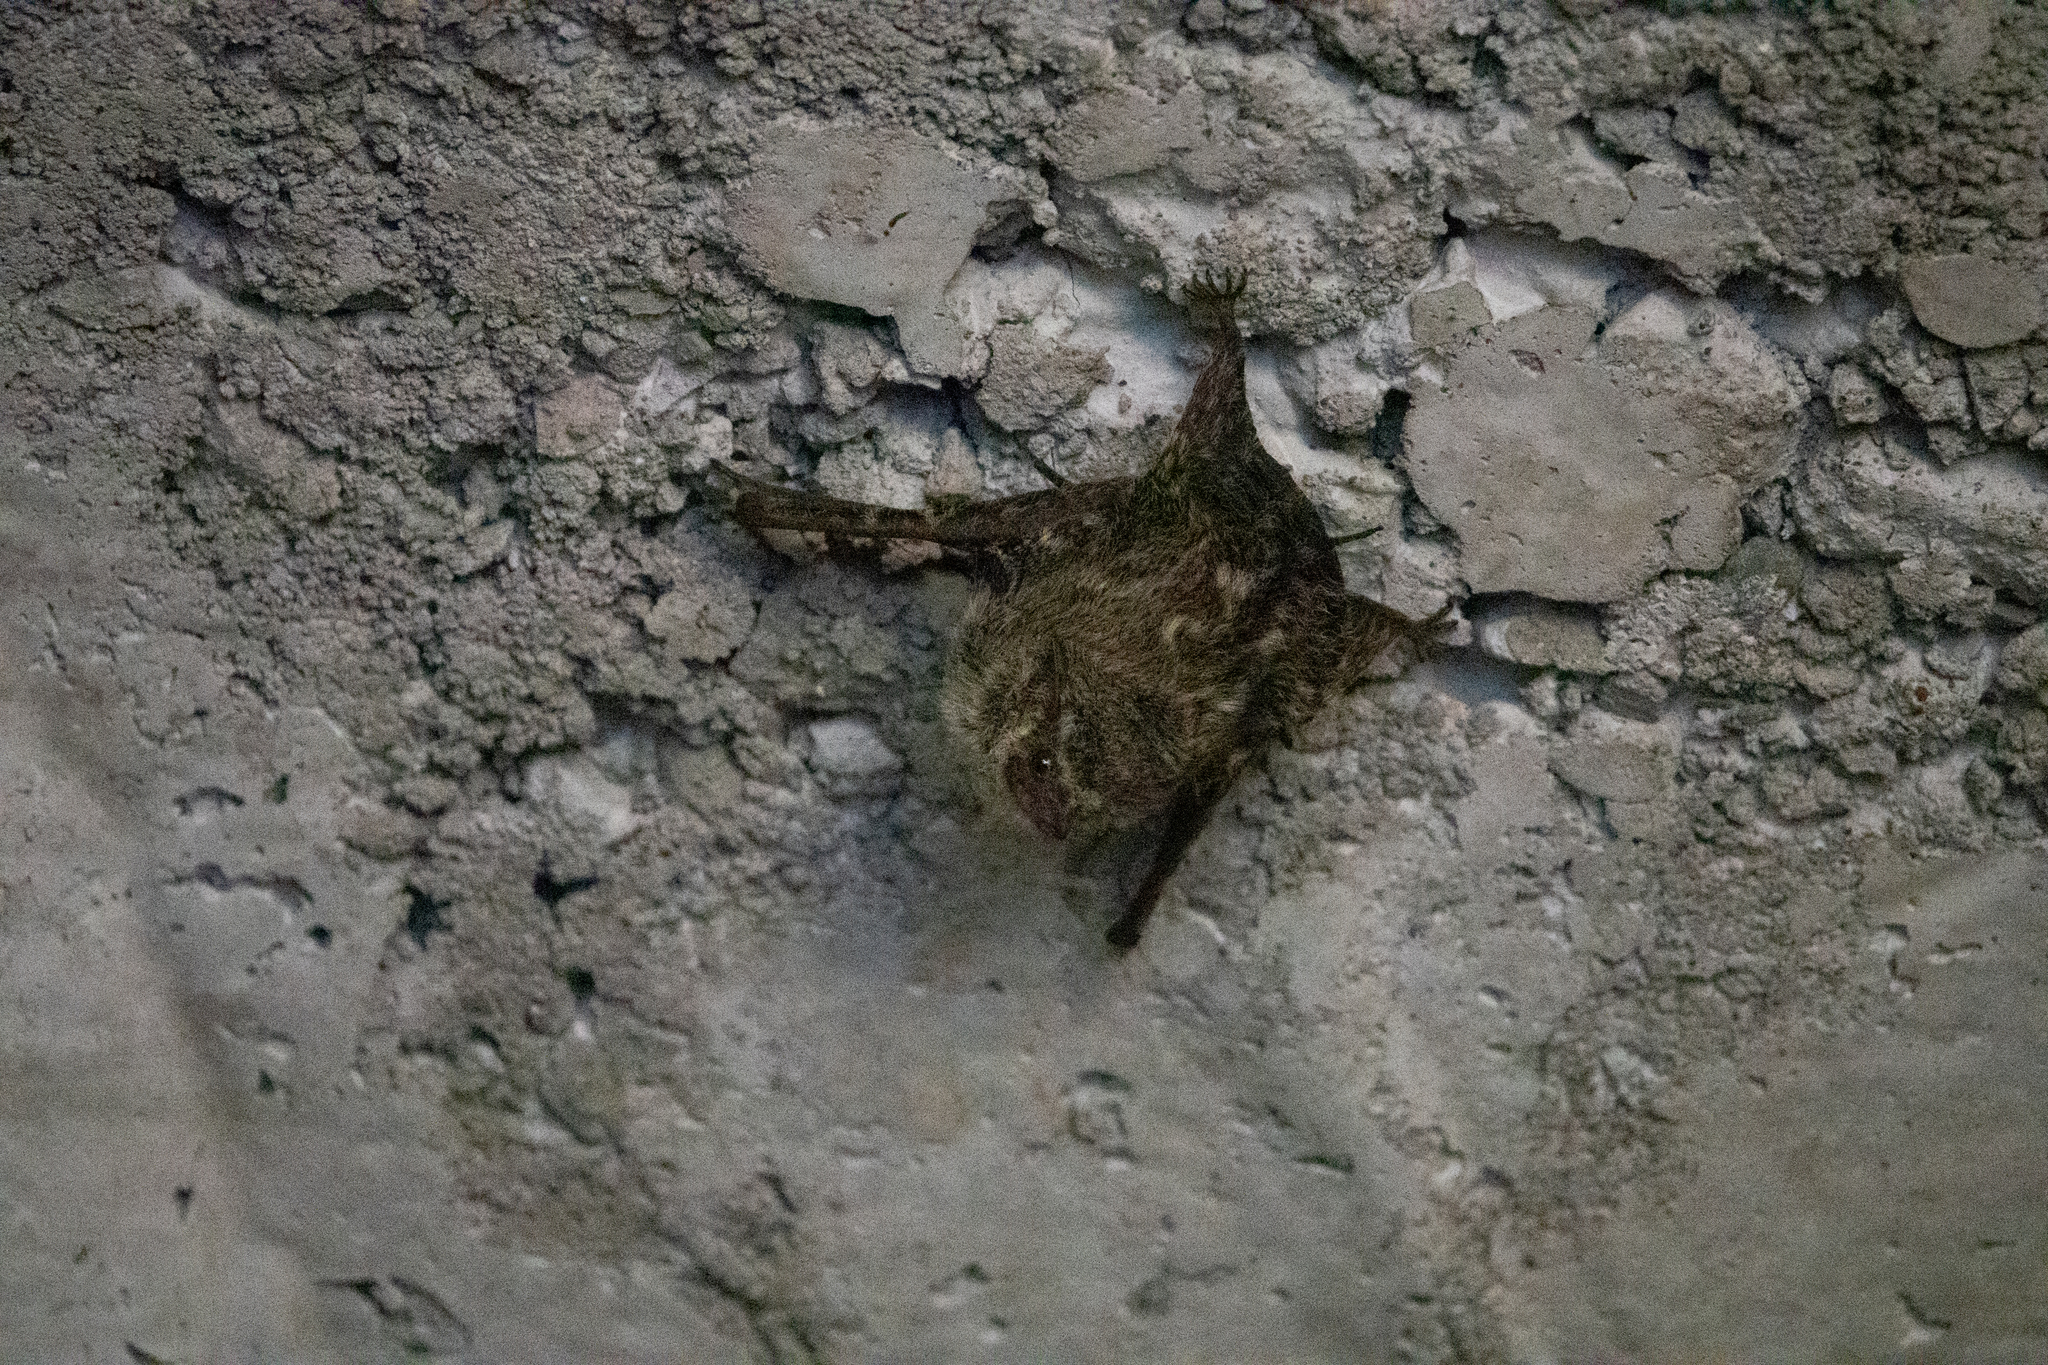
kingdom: Animalia
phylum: Chordata
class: Mammalia
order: Chiroptera
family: Emballonuridae
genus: Rhynchonycteris
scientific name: Rhynchonycteris naso
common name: Proboscis bat
